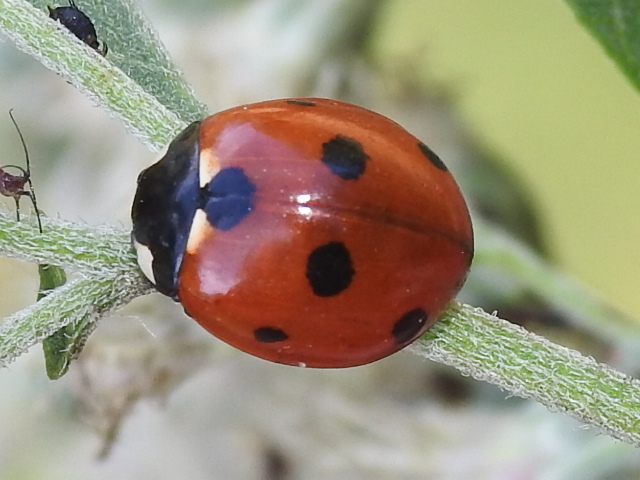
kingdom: Animalia
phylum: Arthropoda
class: Insecta
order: Coleoptera
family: Coccinellidae
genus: Coccinella
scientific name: Coccinella septempunctata
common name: Sevenspotted lady beetle
